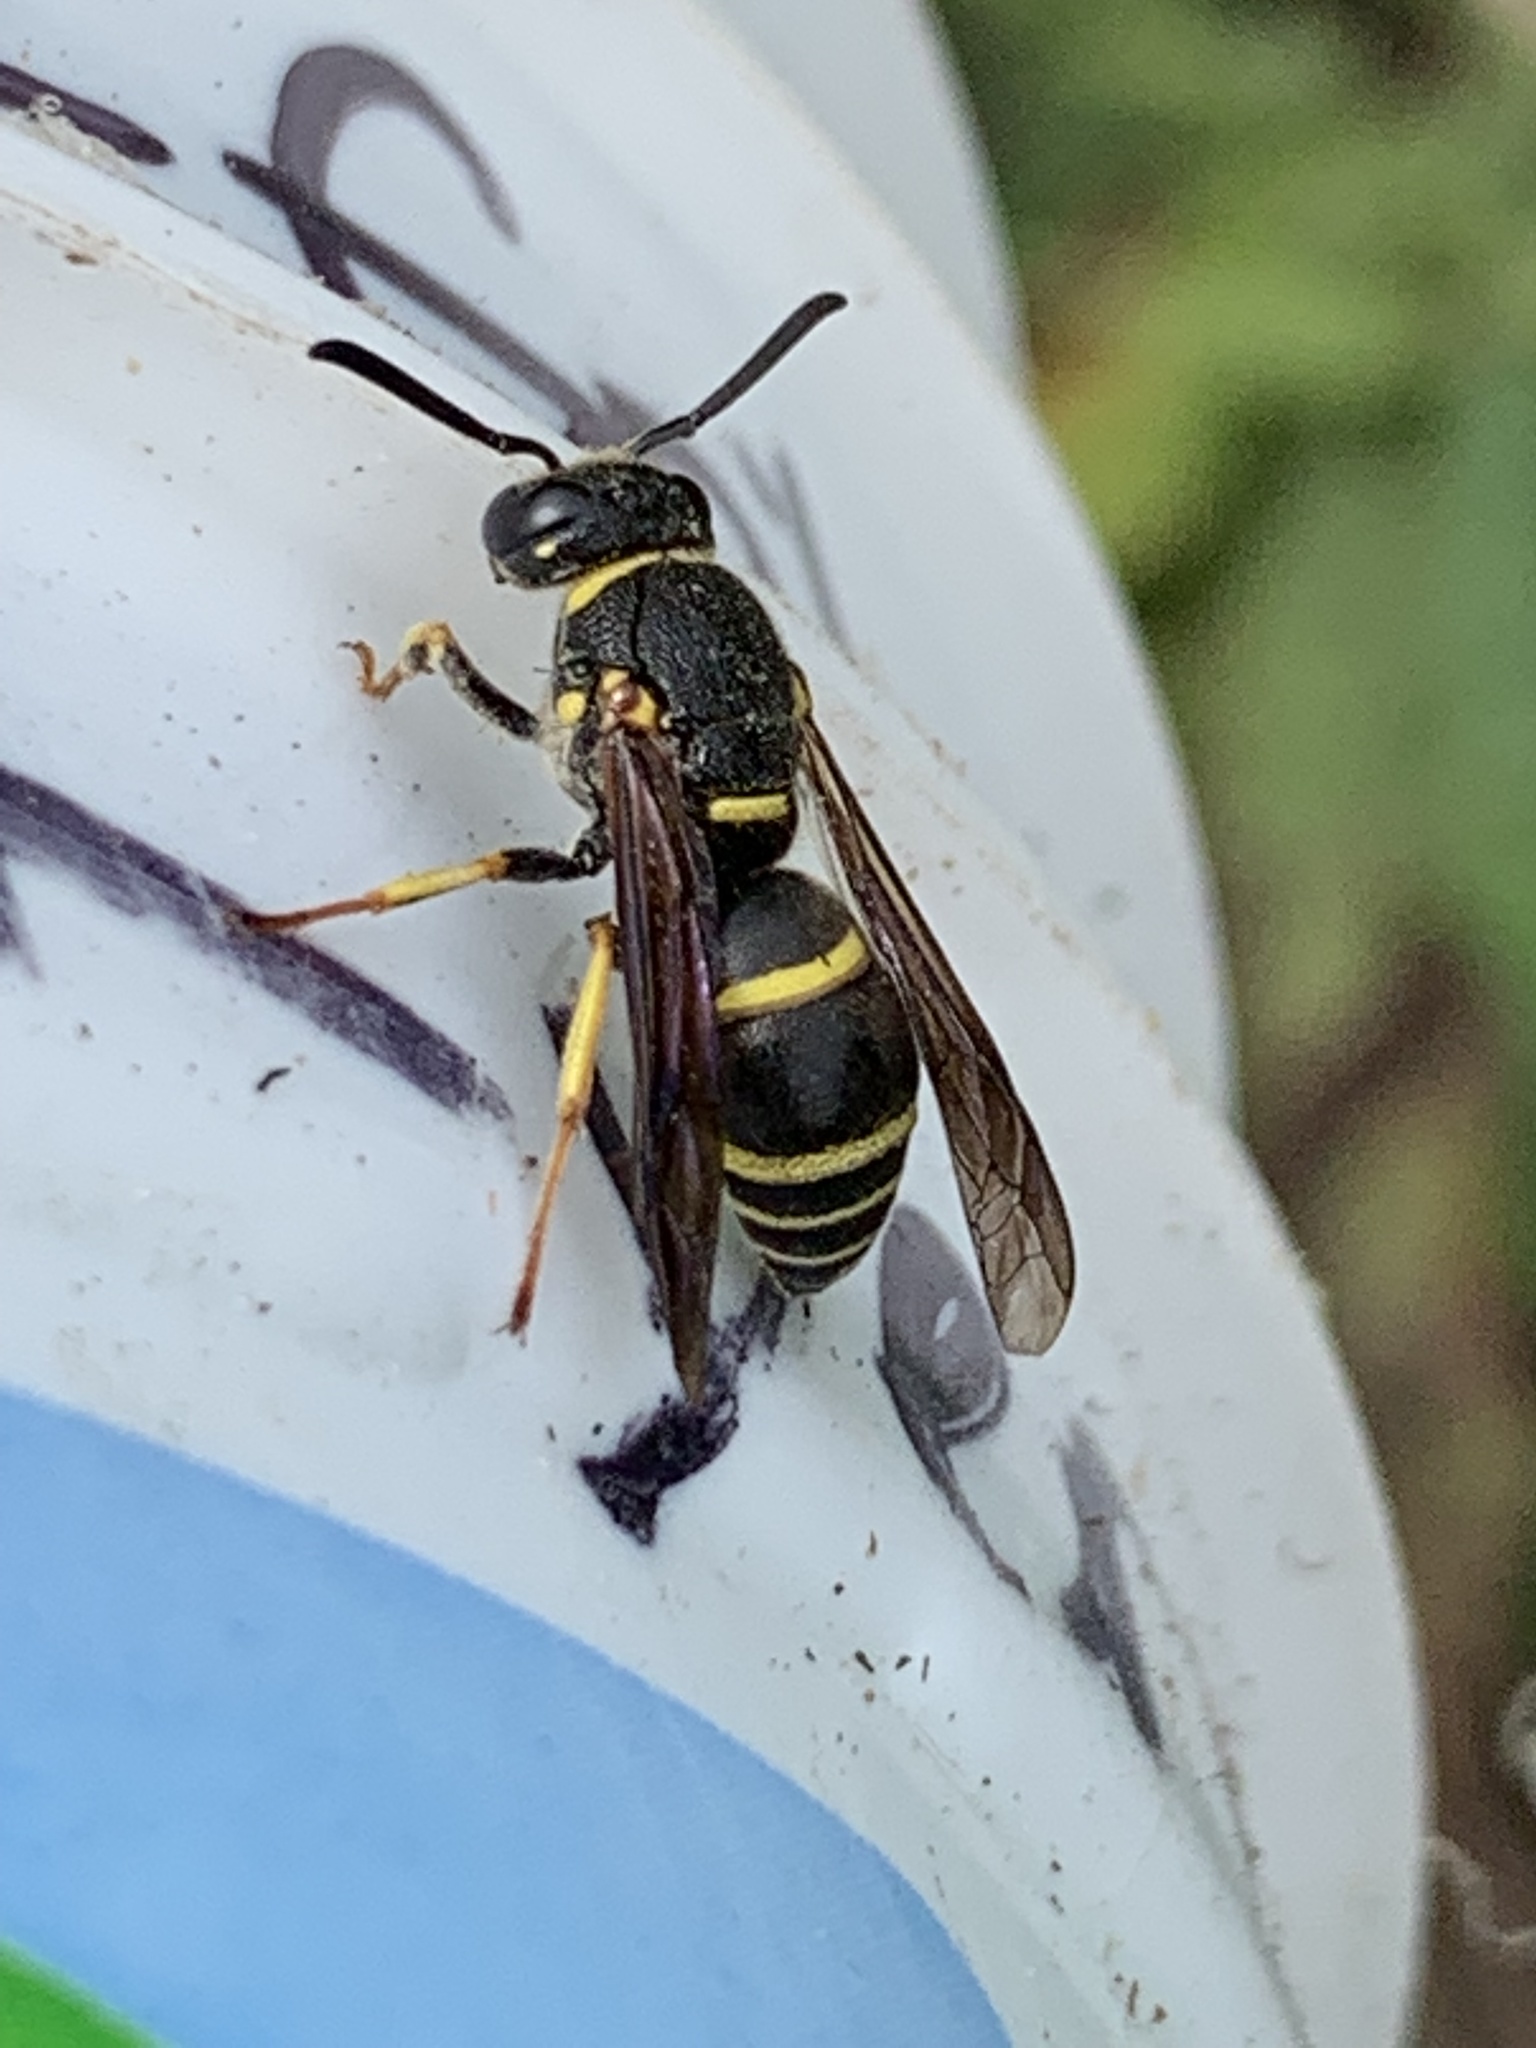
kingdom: Animalia
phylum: Arthropoda
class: Insecta
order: Hymenoptera
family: Eumenidae
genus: Euodynerus
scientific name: Euodynerus foraminatus
